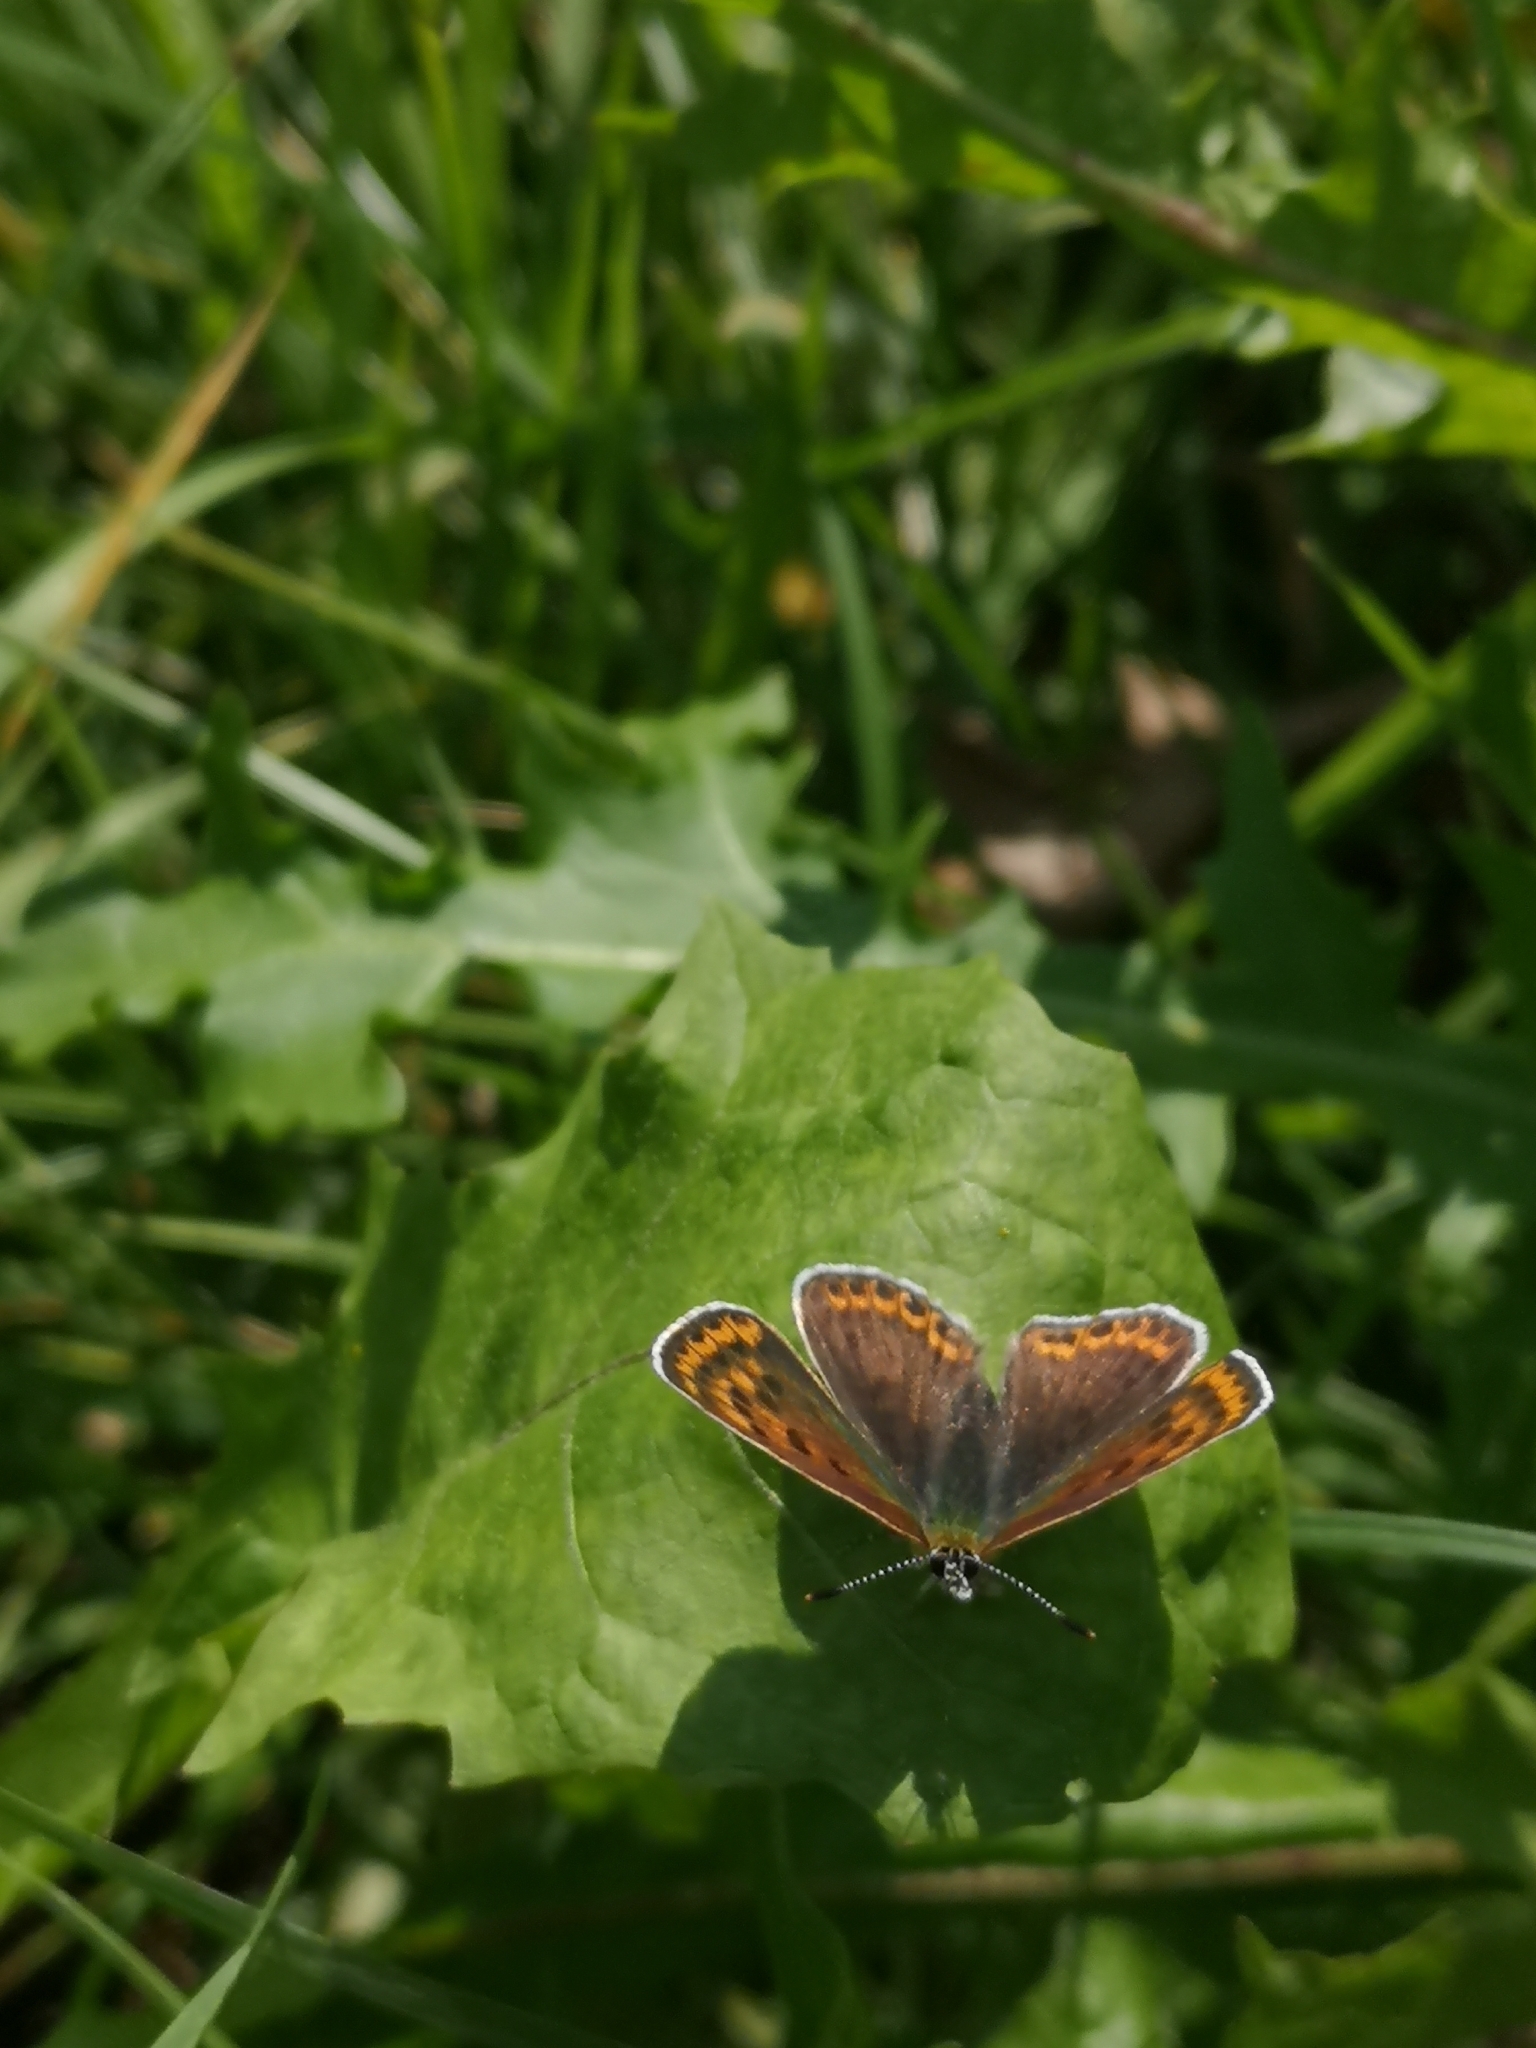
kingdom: Animalia
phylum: Arthropoda
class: Insecta
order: Lepidoptera
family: Lycaenidae
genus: Loweia
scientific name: Loweia tityrus
